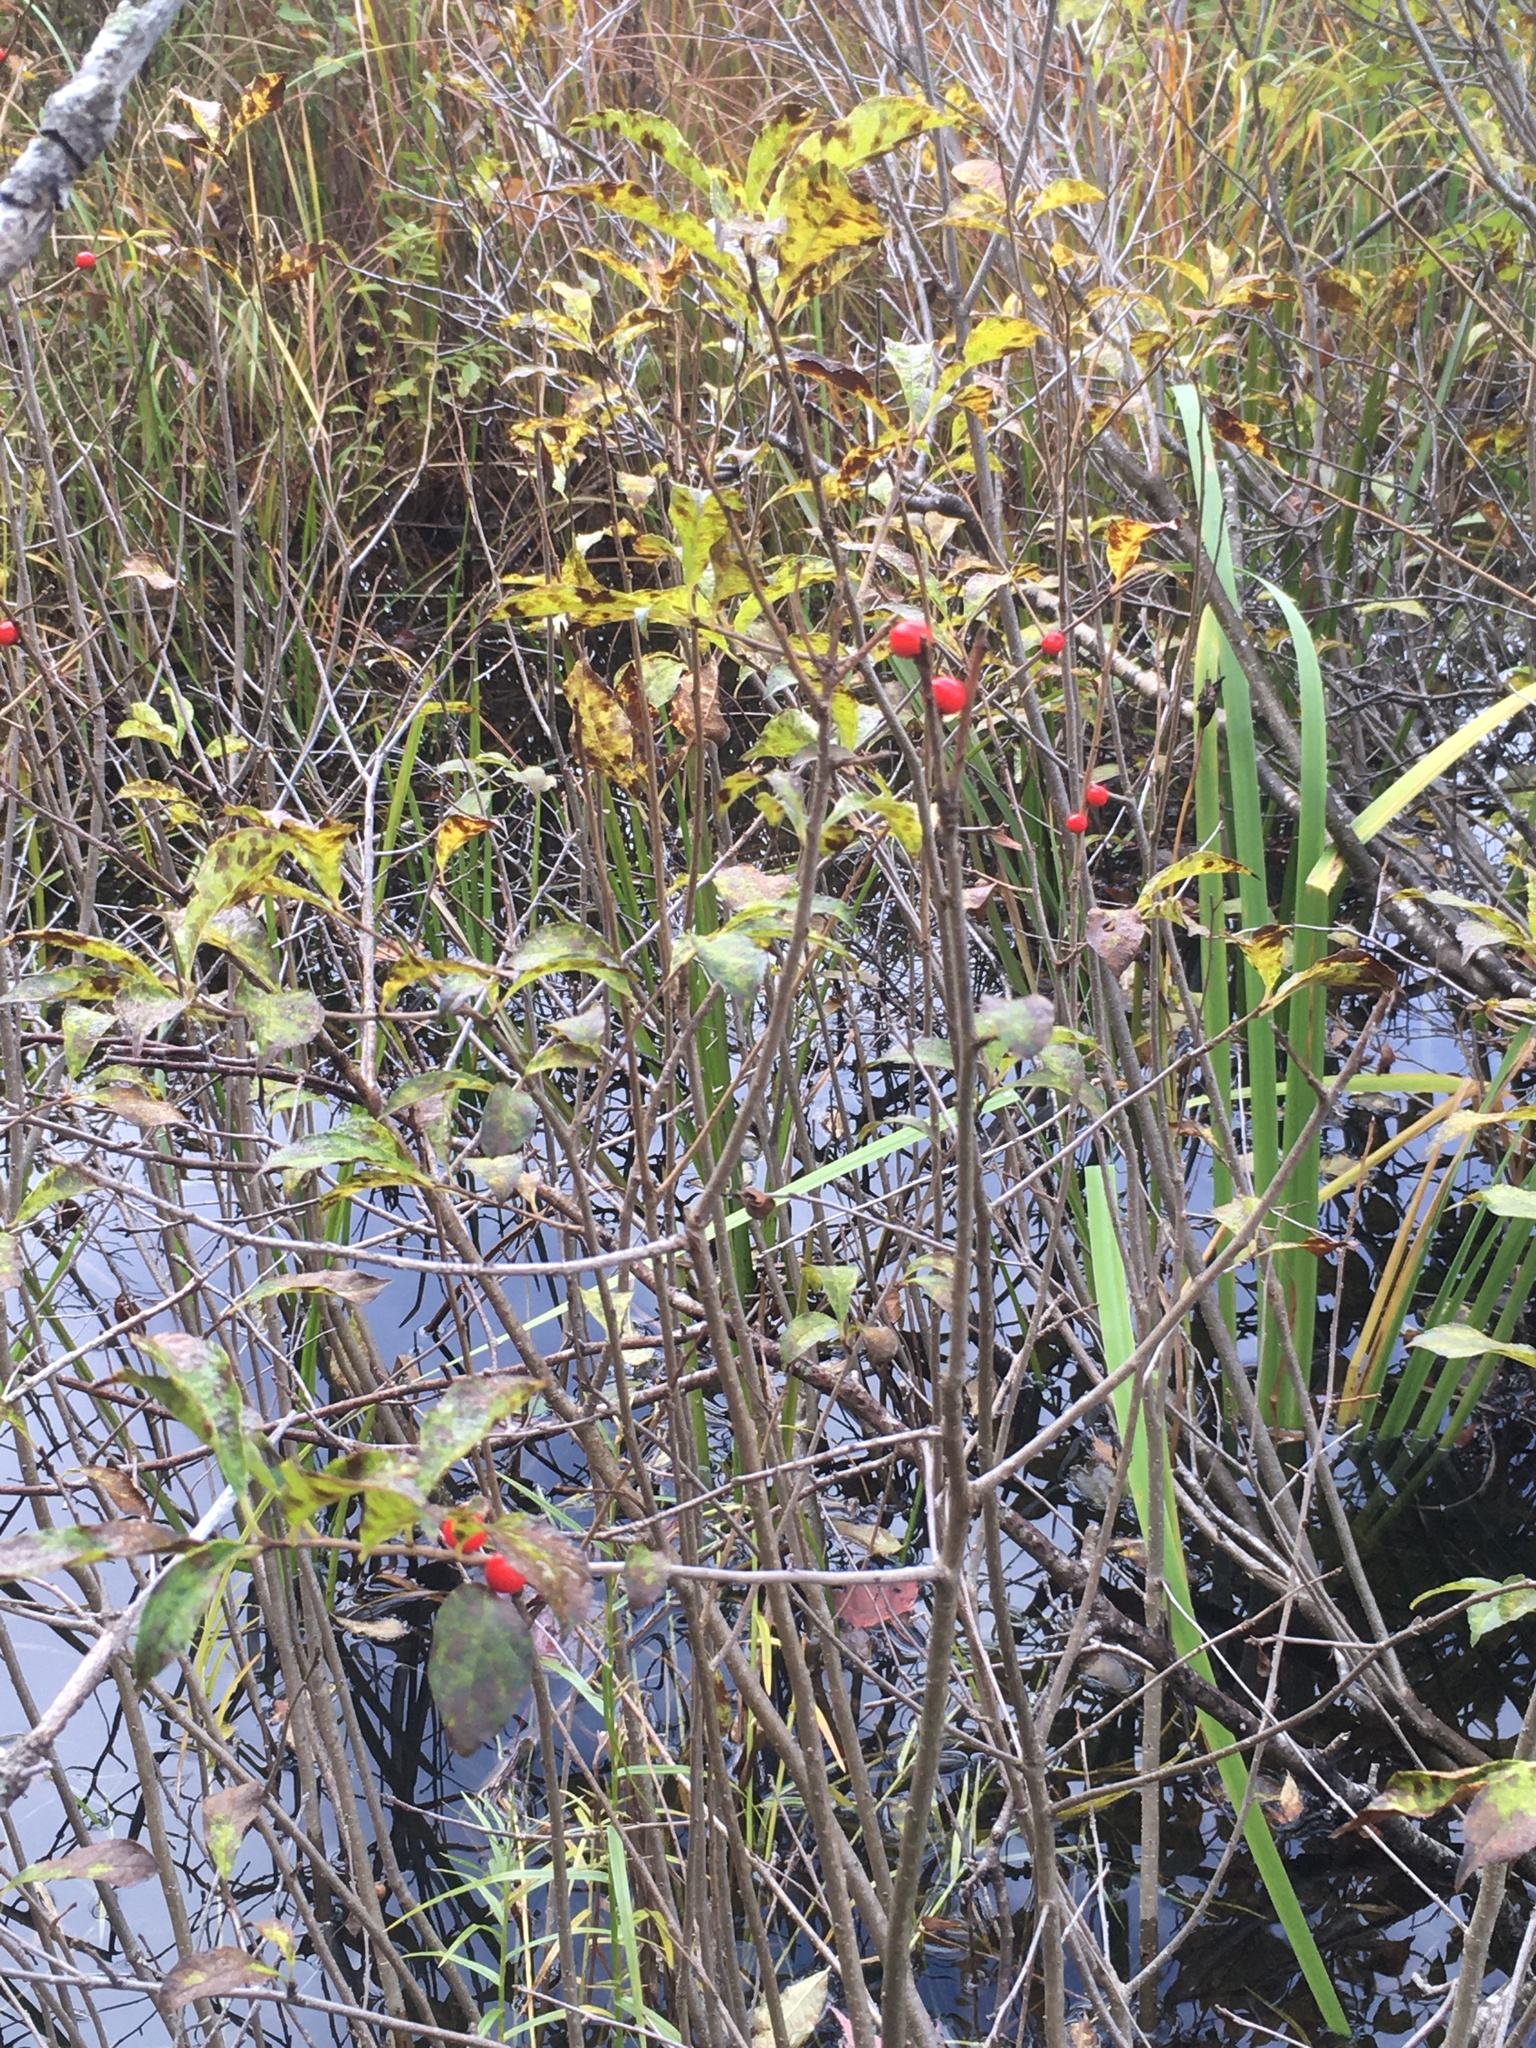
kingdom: Plantae
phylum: Tracheophyta
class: Magnoliopsida
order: Aquifoliales
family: Aquifoliaceae
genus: Ilex
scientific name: Ilex verticillata
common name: Virginia winterberry
